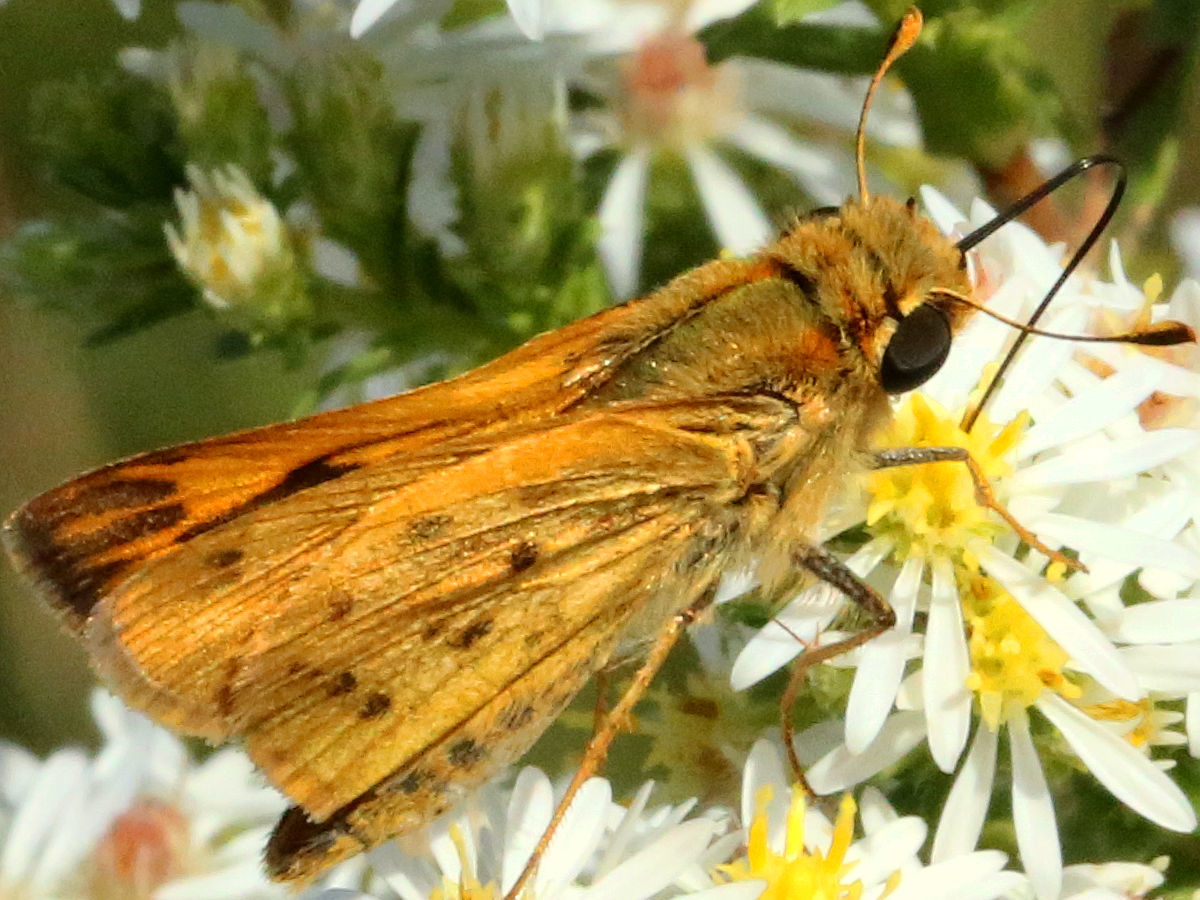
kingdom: Animalia
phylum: Arthropoda
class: Insecta
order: Lepidoptera
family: Hesperiidae
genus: Hylephila
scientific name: Hylephila phyleus
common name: Fiery skipper
